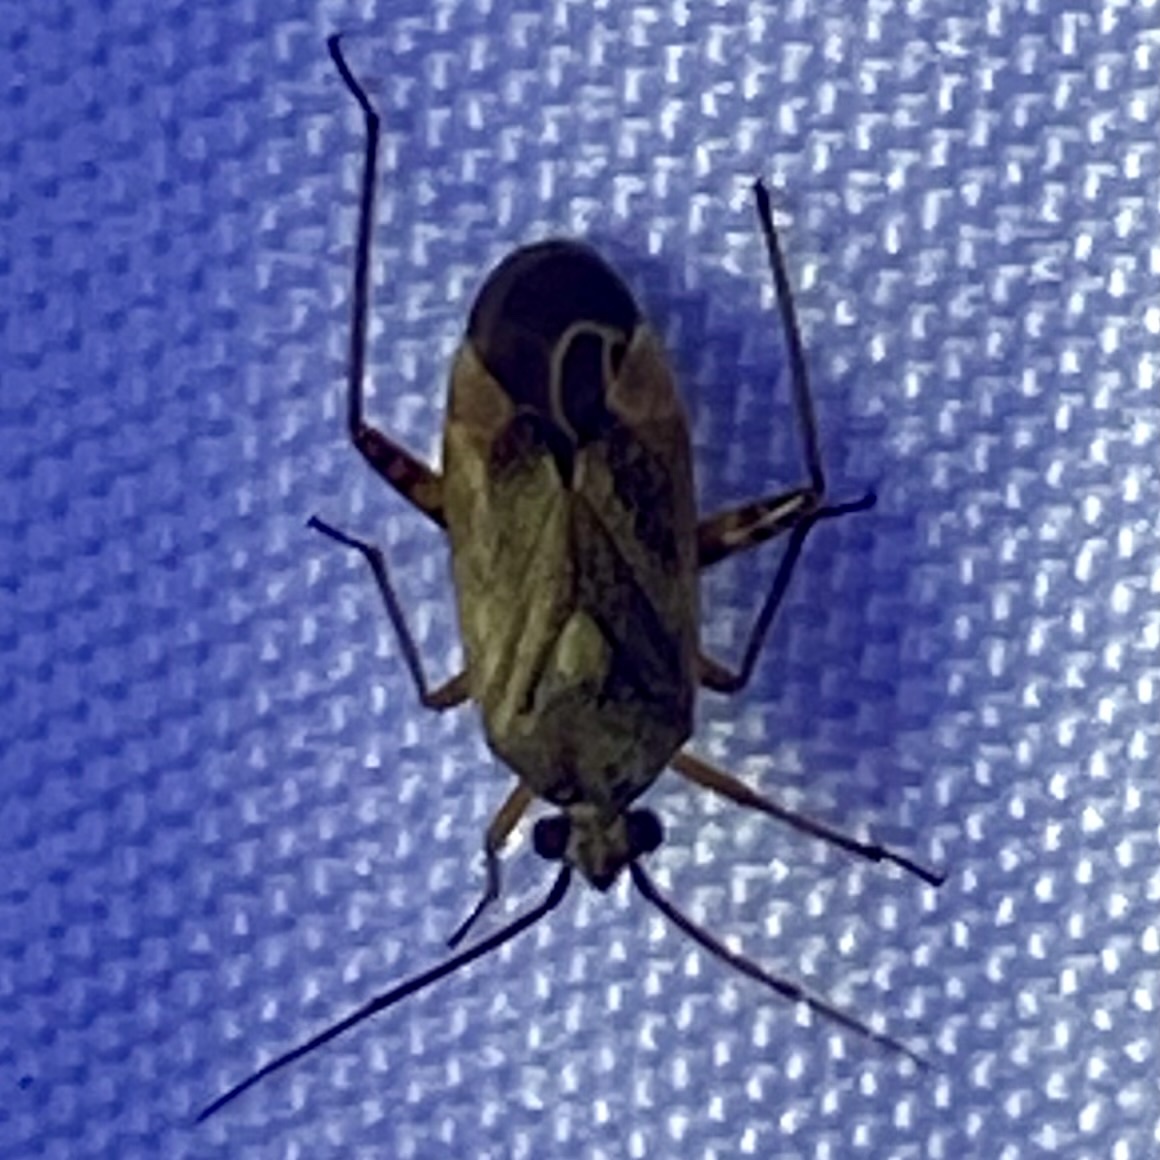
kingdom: Animalia
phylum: Arthropoda
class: Insecta
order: Hemiptera
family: Miridae
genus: Polymerus
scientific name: Polymerus basalis
